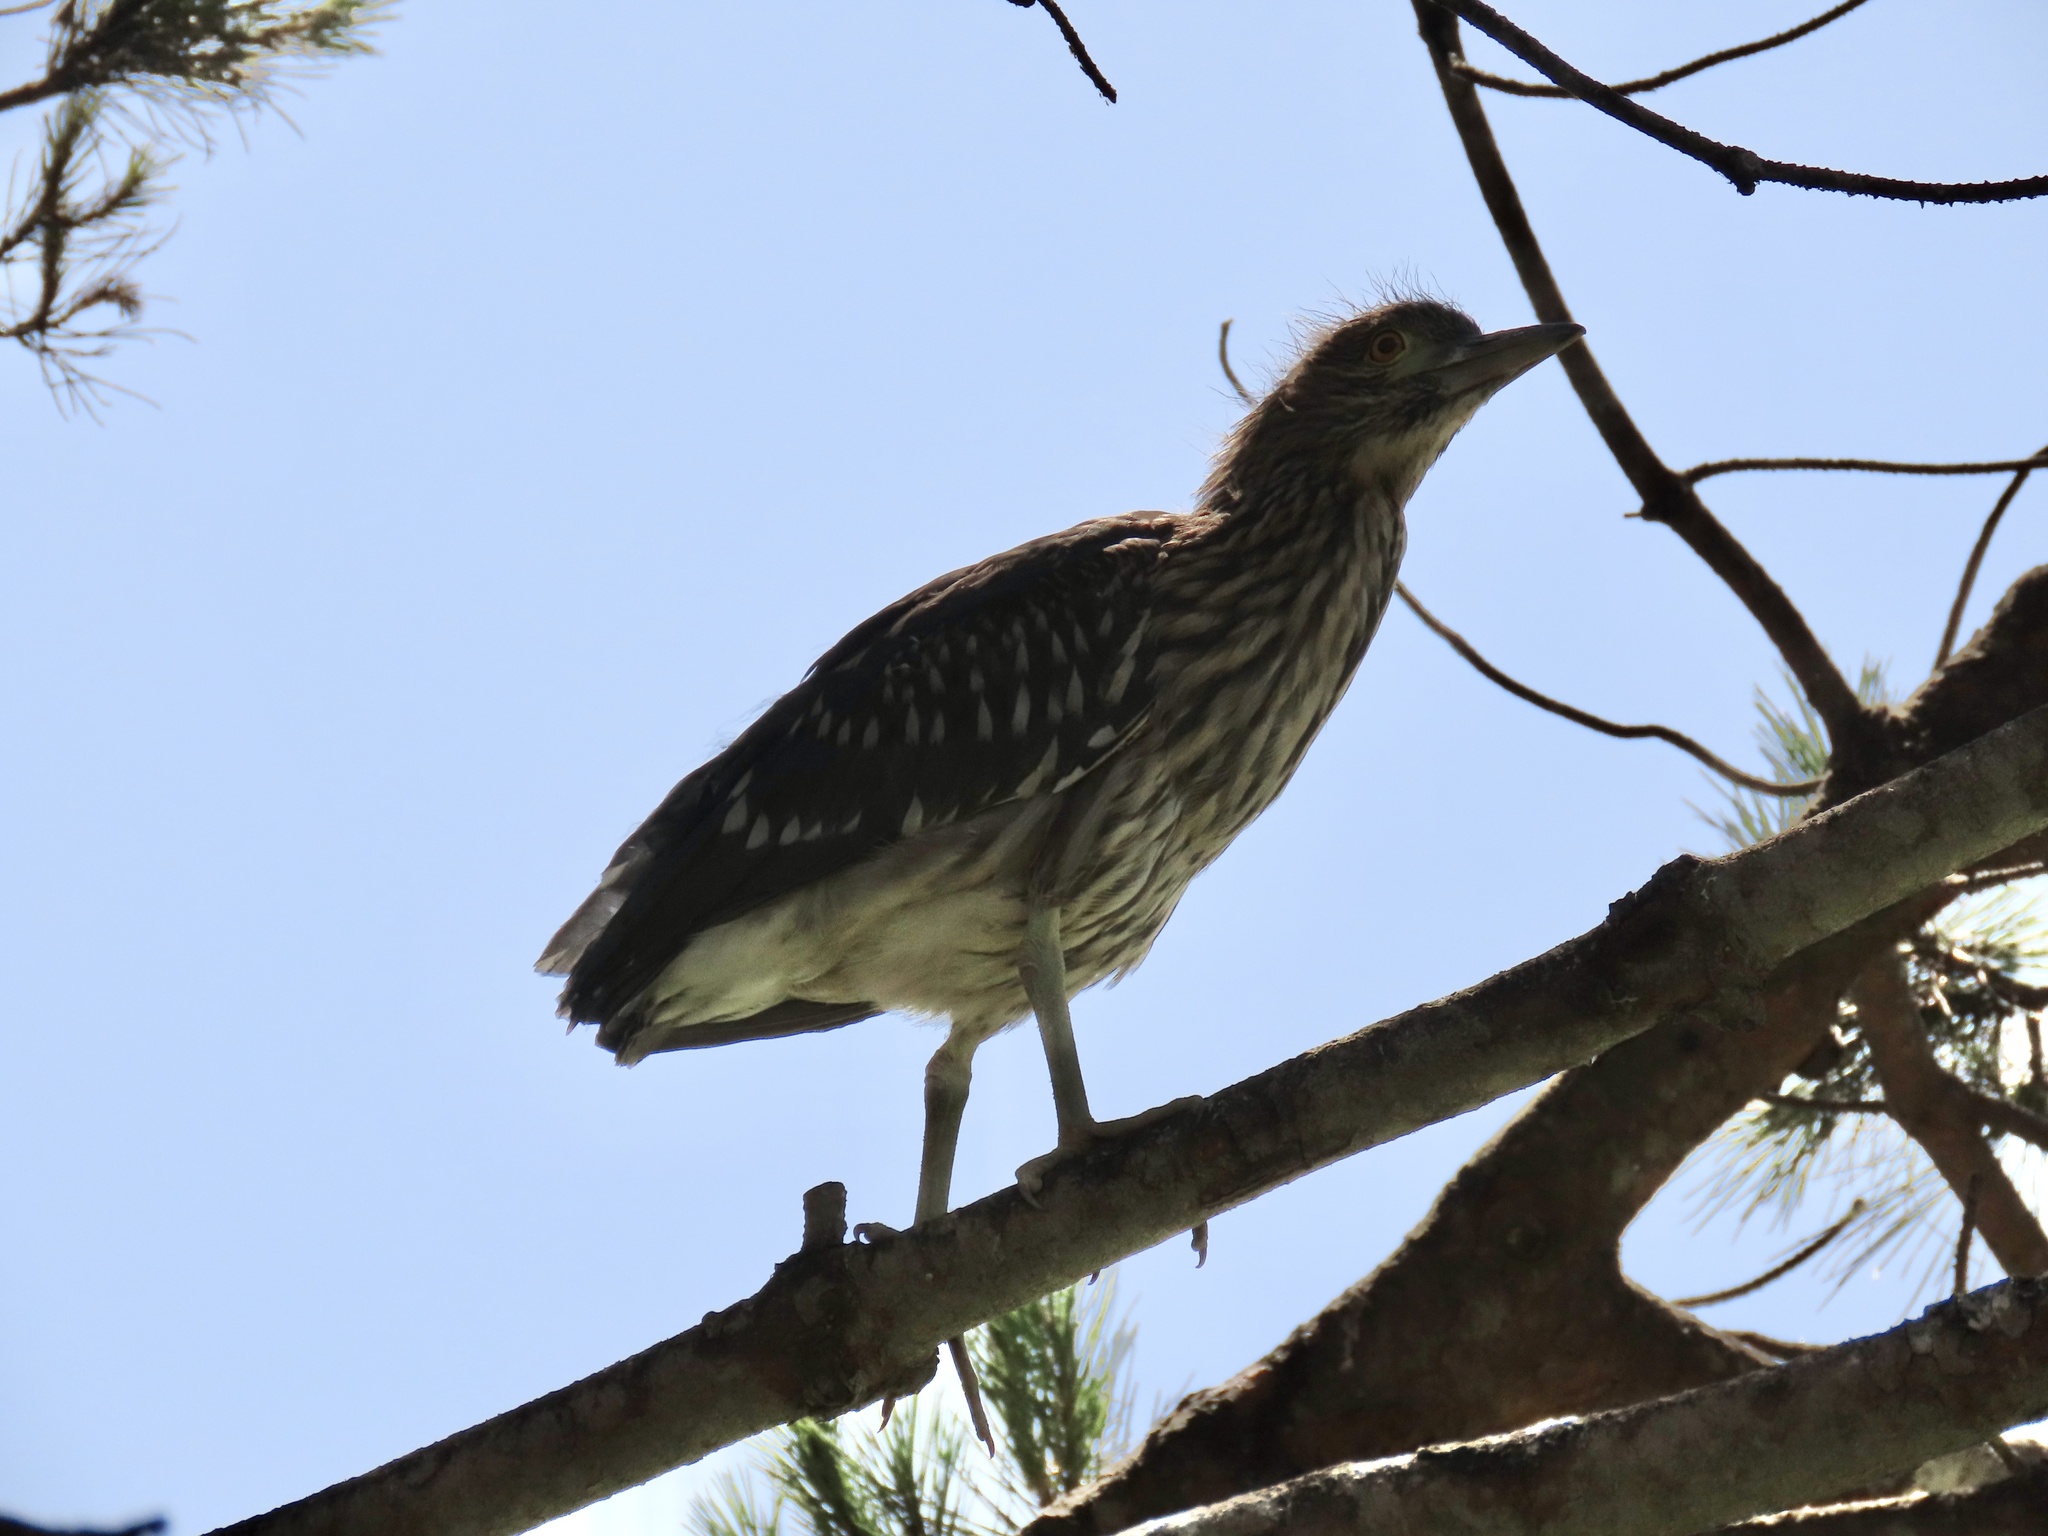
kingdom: Animalia
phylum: Chordata
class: Aves
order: Pelecaniformes
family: Ardeidae
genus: Nycticorax
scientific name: Nycticorax nycticorax
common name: Black-crowned night heron
